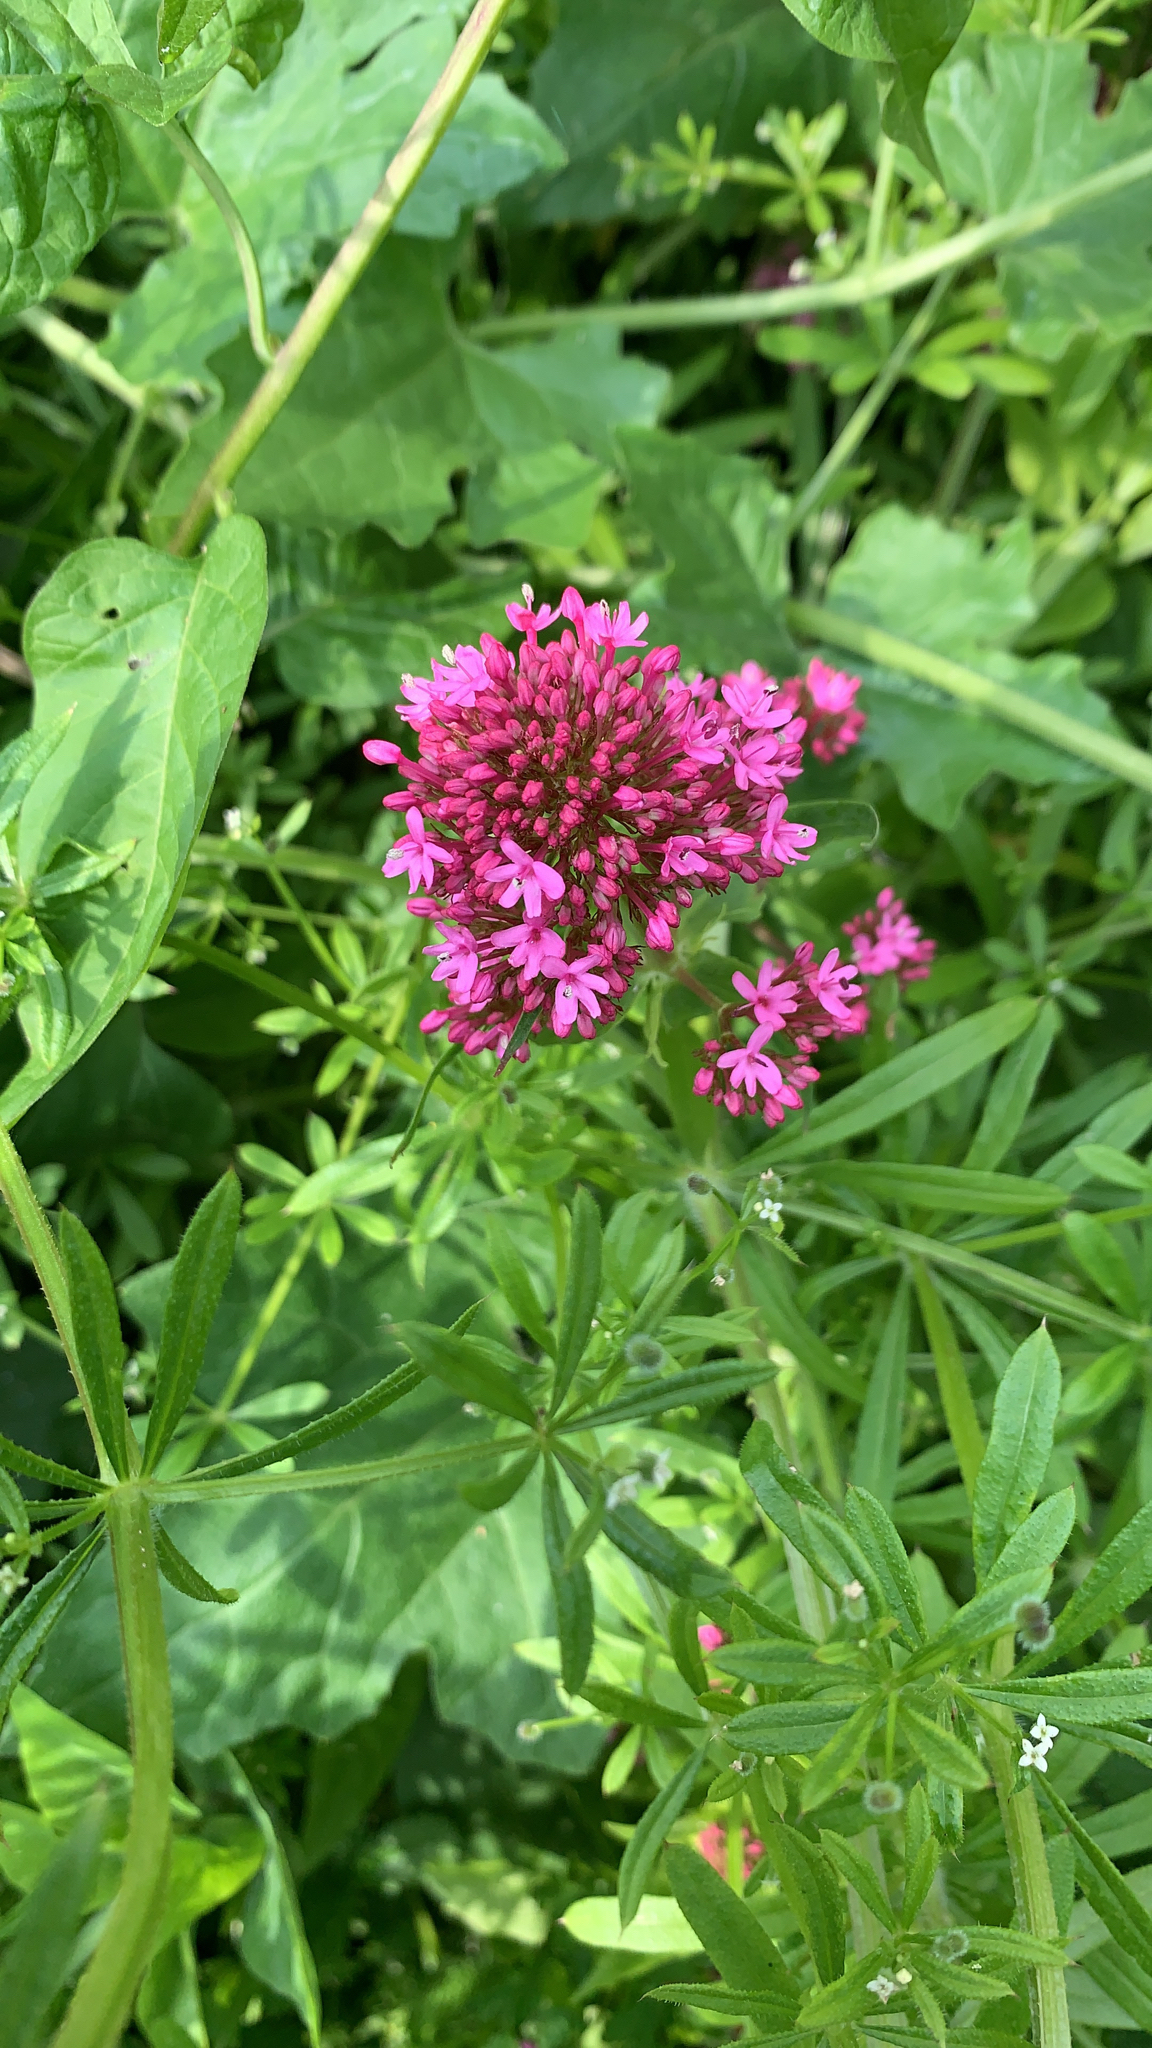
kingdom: Plantae
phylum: Tracheophyta
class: Magnoliopsida
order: Dipsacales
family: Caprifoliaceae
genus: Centranthus
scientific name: Centranthus ruber
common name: Red valerian
